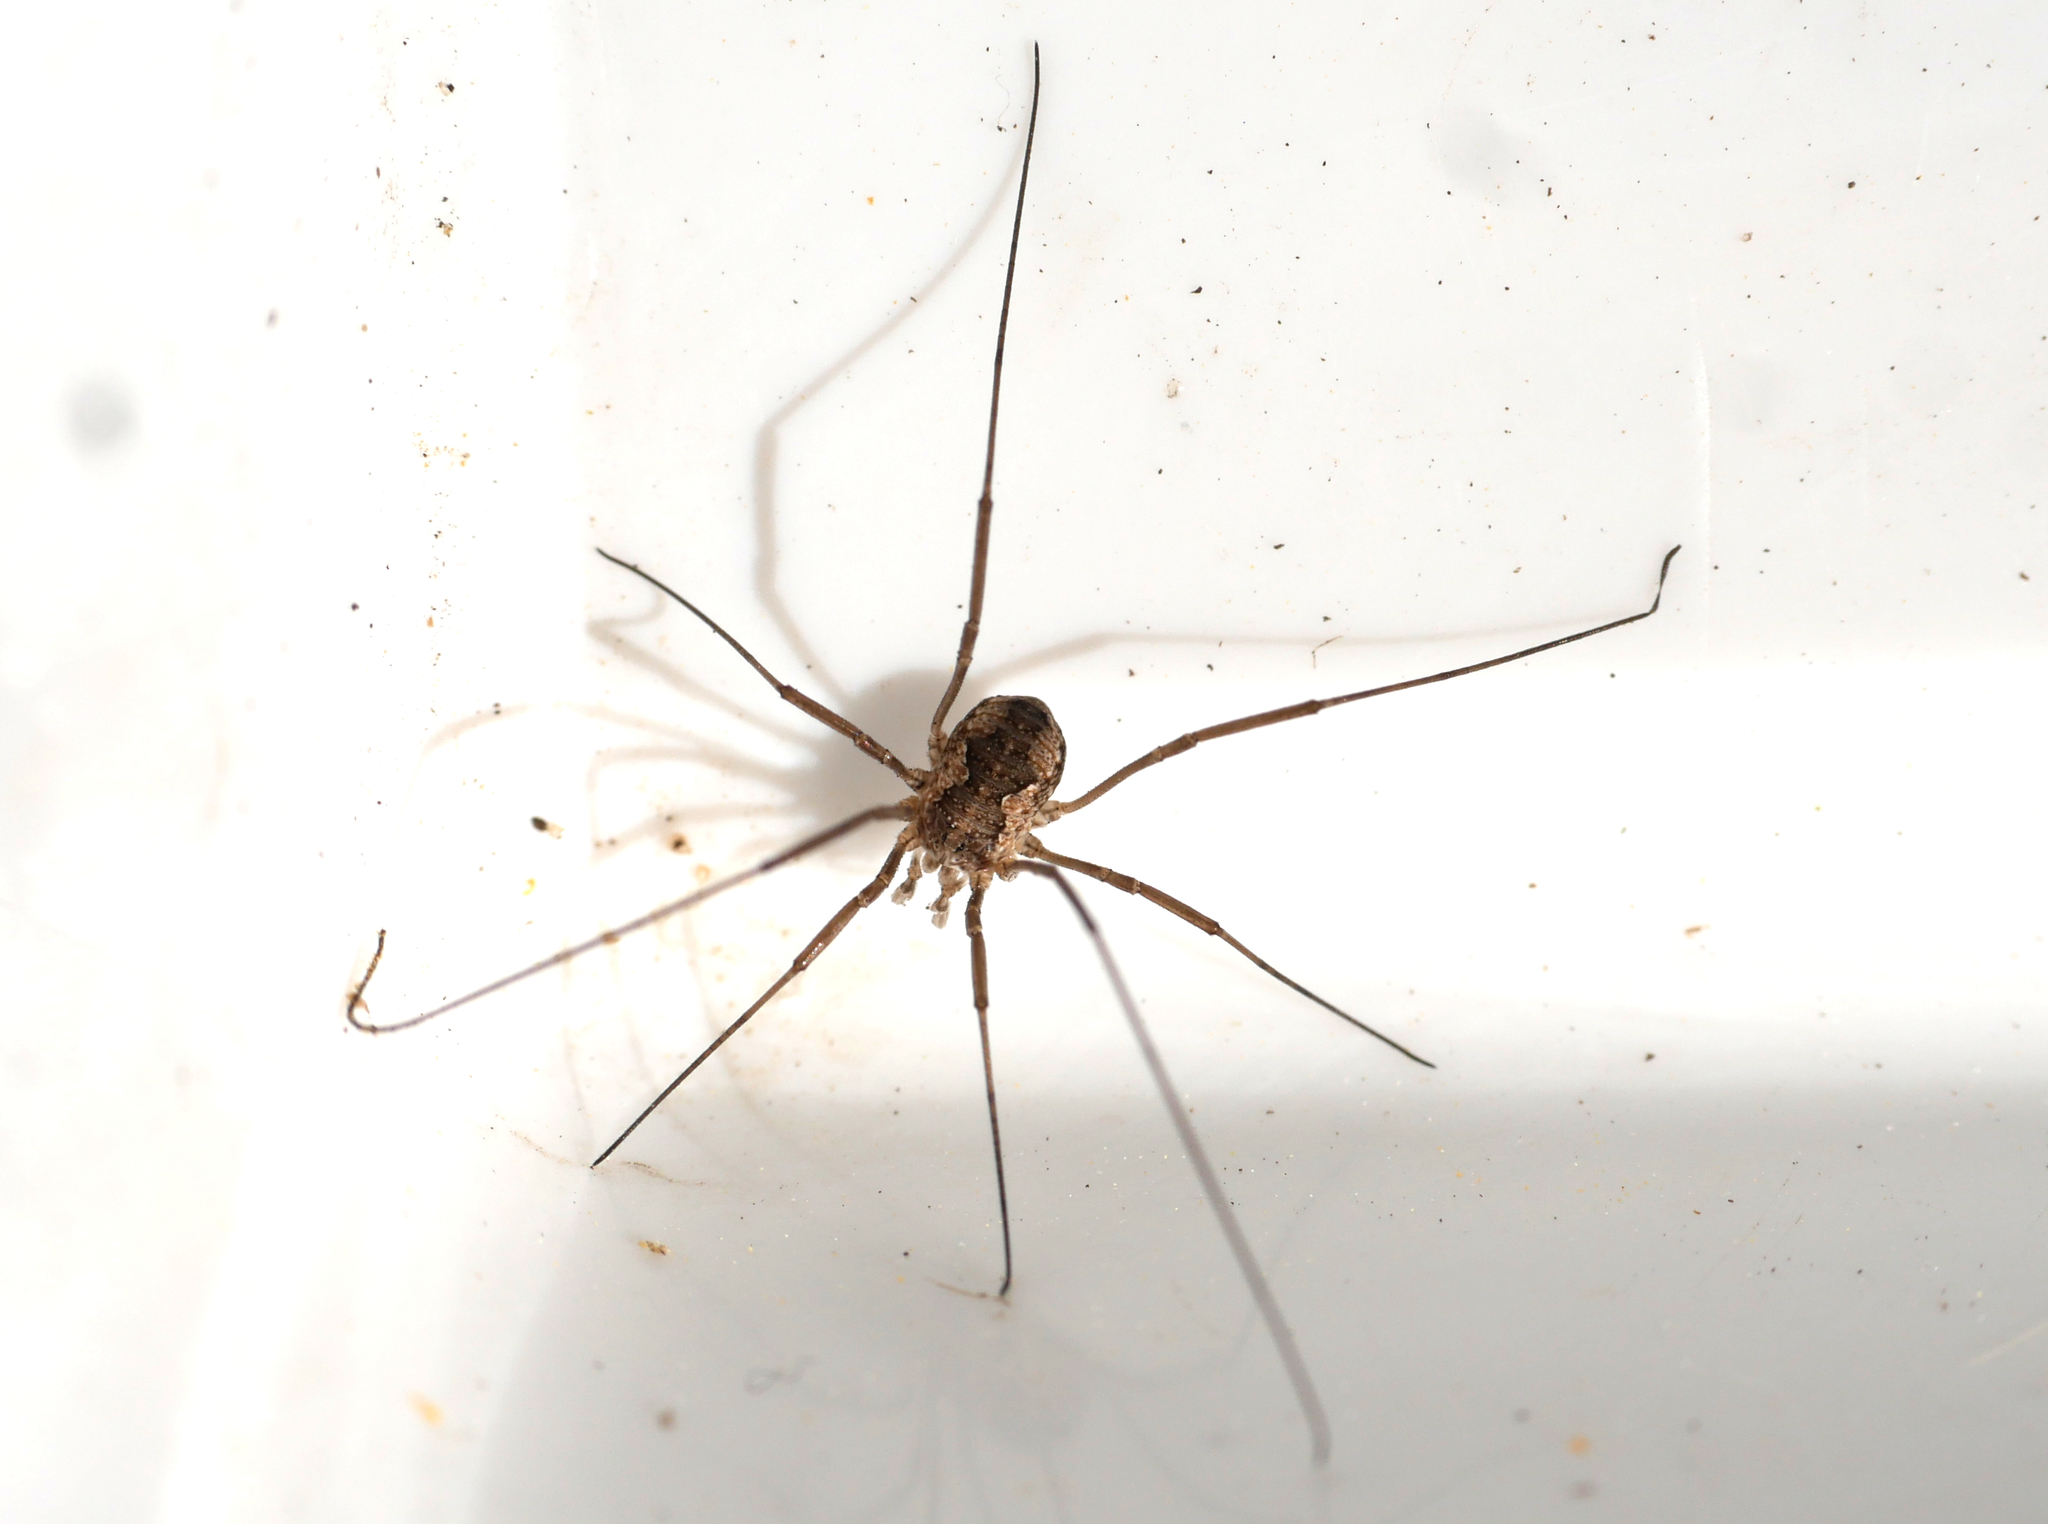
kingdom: Animalia
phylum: Arthropoda
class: Arachnida
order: Opiliones
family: Phalangiidae
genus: Phalangium
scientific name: Phalangium opilio
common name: Daddy longleg
